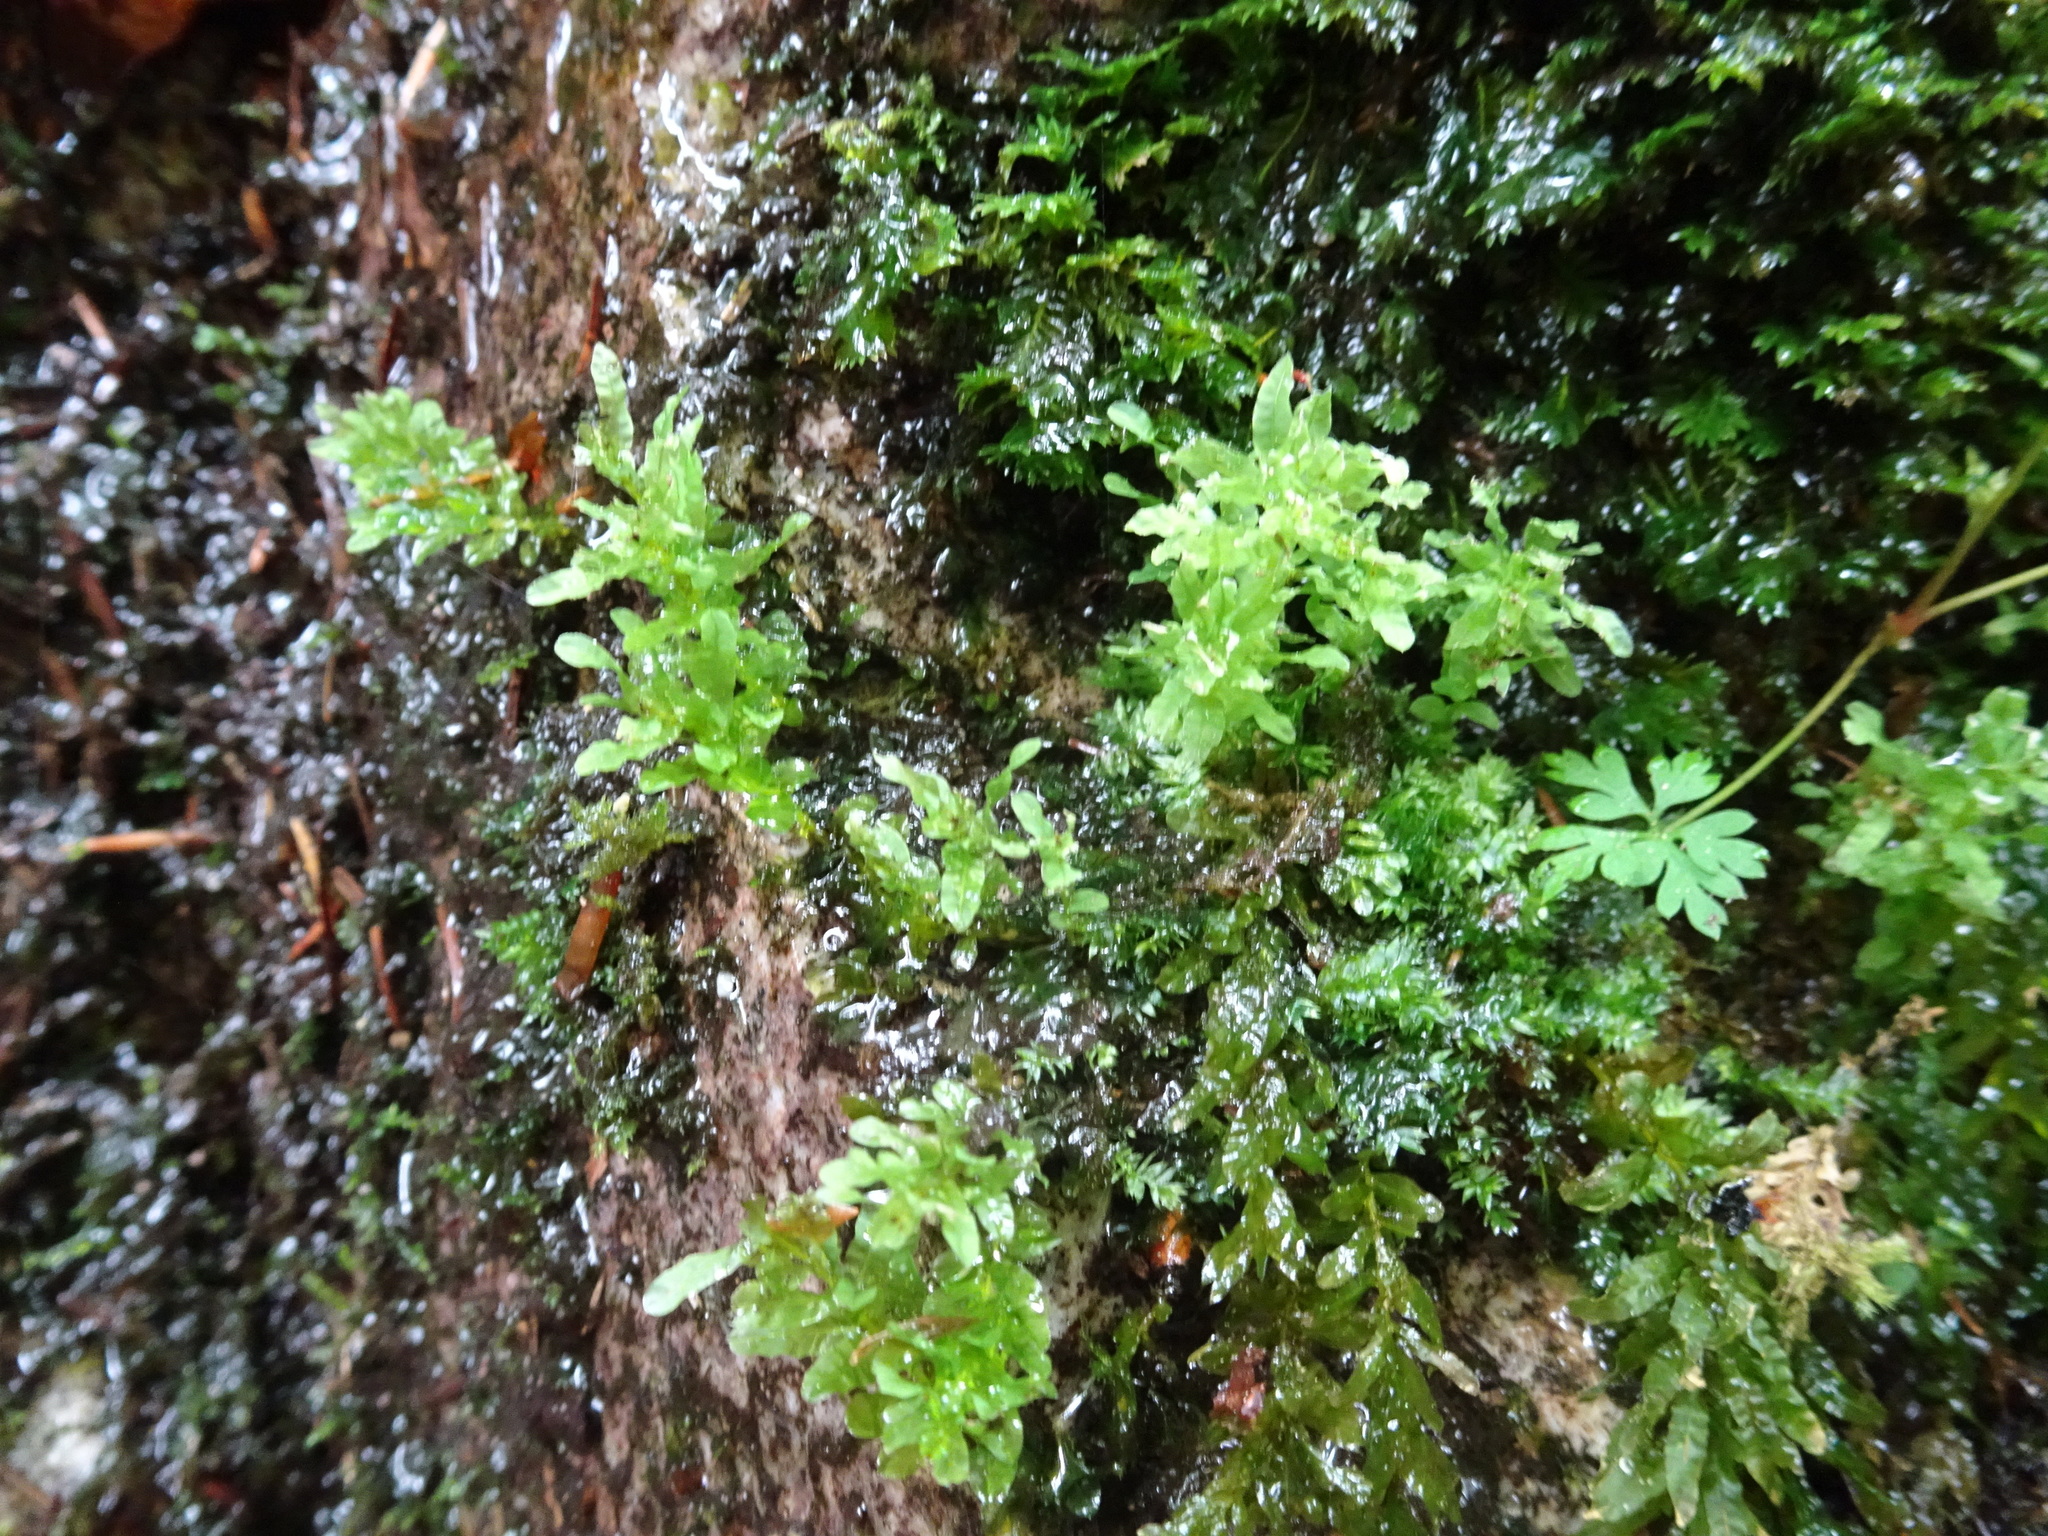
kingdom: Plantae
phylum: Bryophyta
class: Bryopsida
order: Bryales
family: Mniaceae
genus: Plagiomnium
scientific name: Plagiomnium undulatum
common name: Hart's-tongue thyme-moss
